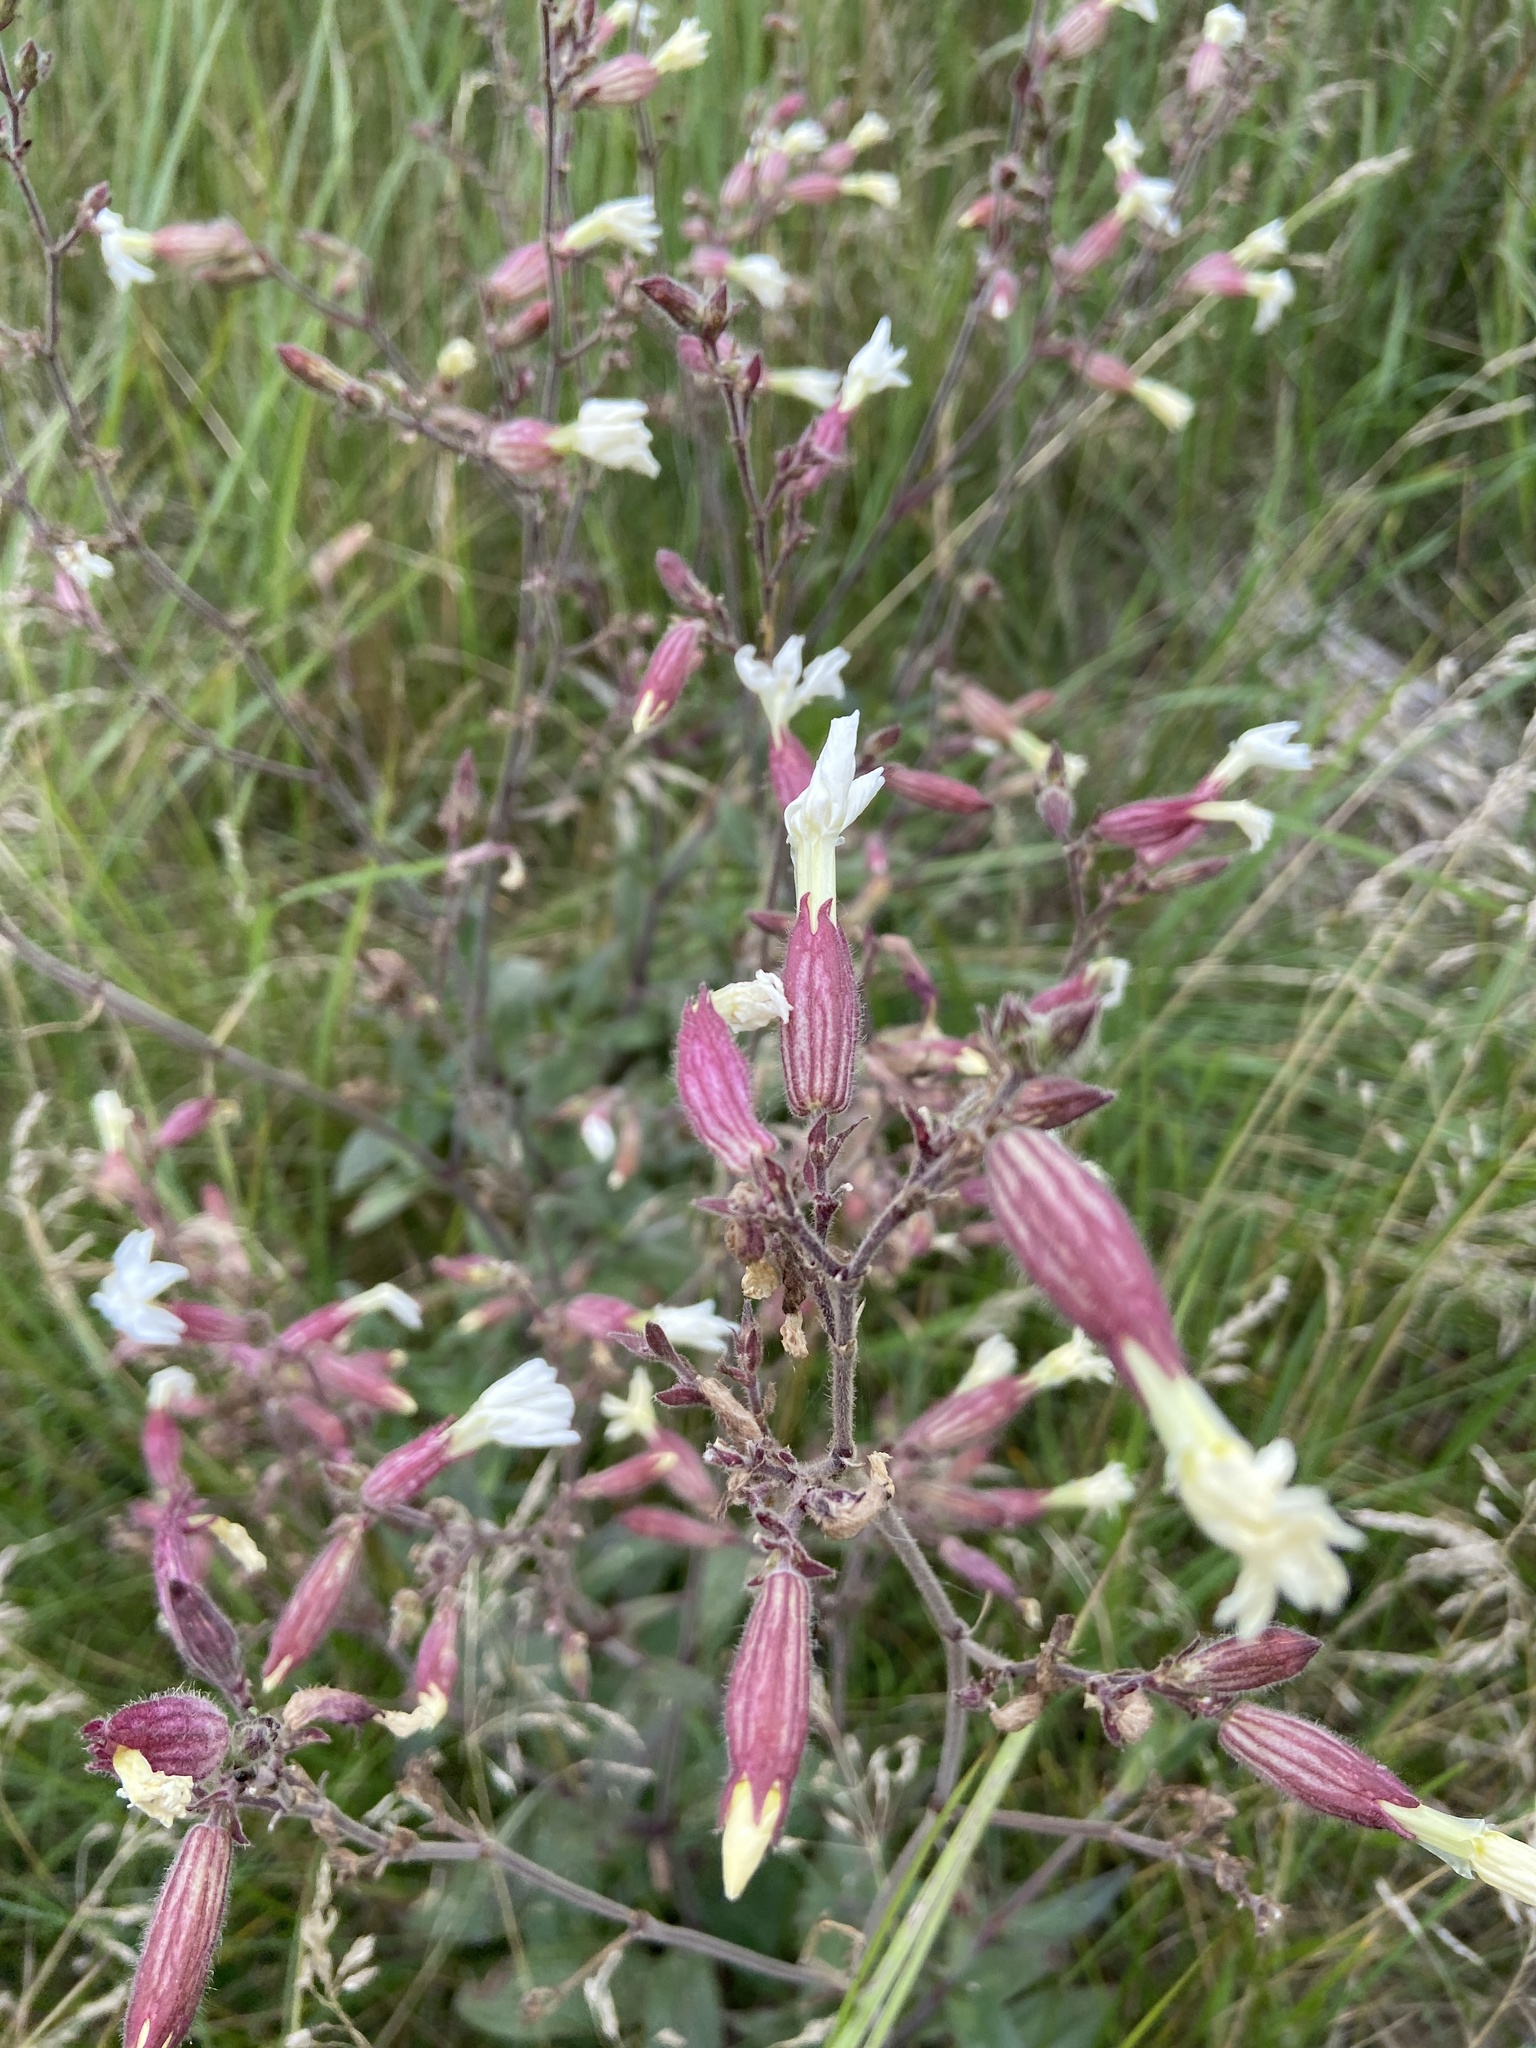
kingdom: Plantae
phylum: Tracheophyta
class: Magnoliopsida
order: Caryophyllales
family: Caryophyllaceae
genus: Silene
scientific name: Silene latifolia
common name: White campion
